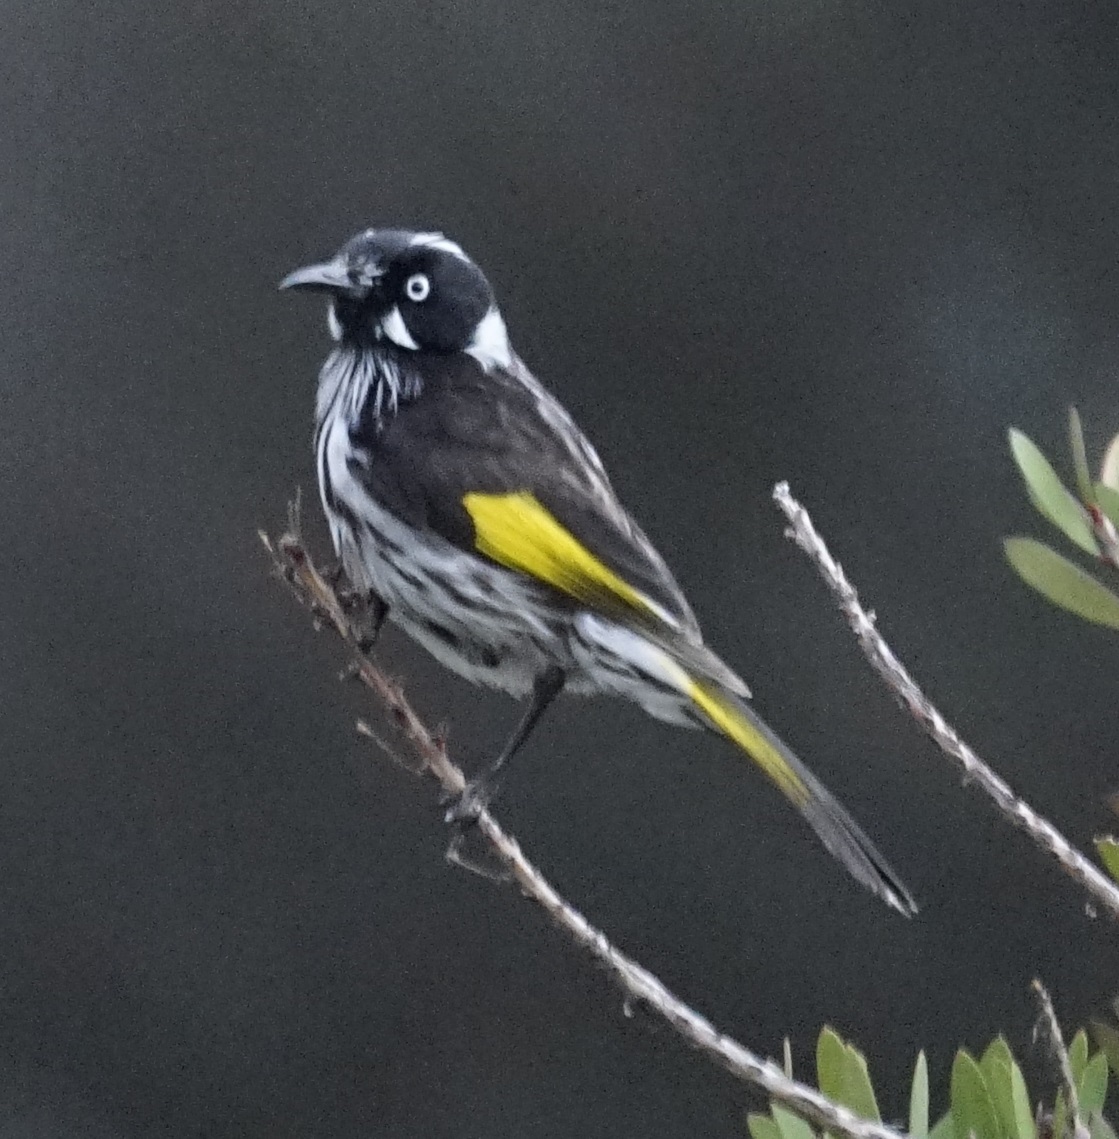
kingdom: Animalia
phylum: Chordata
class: Aves
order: Passeriformes
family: Meliphagidae
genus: Phylidonyris
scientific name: Phylidonyris novaehollandiae
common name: New holland honeyeater
